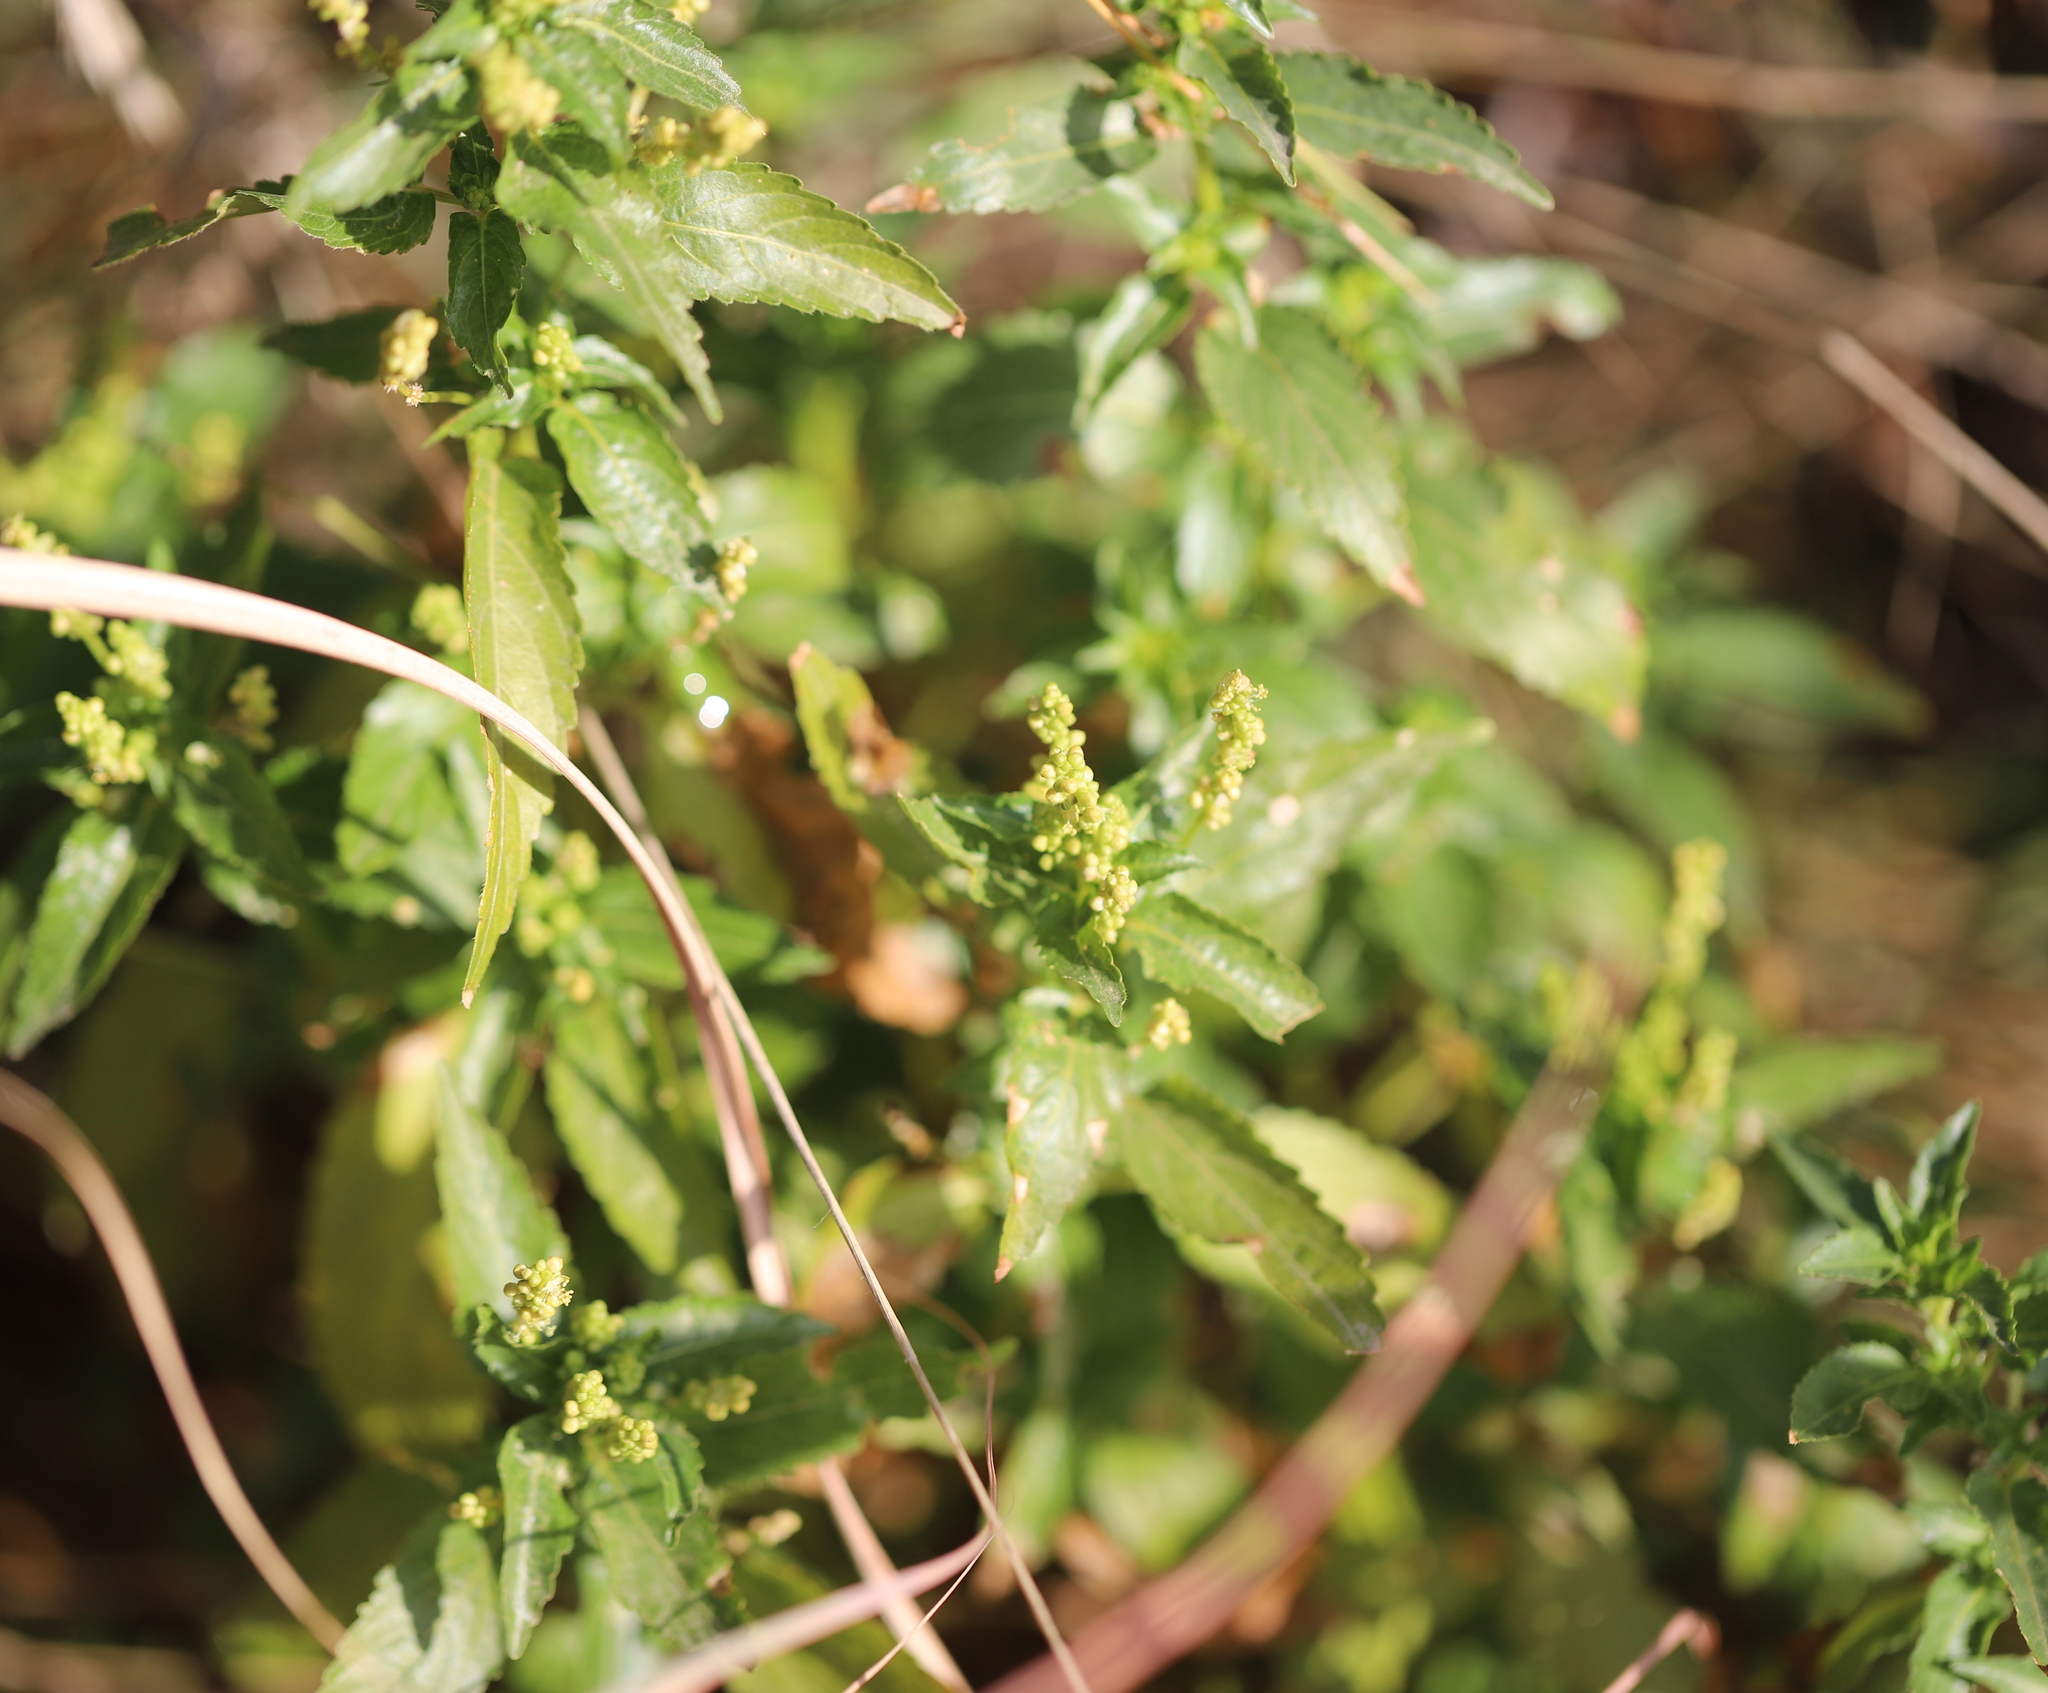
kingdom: Plantae
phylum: Tracheophyta
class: Magnoliopsida
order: Malpighiales
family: Euphorbiaceae
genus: Mercurialis
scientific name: Mercurialis annua
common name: Annual mercury
